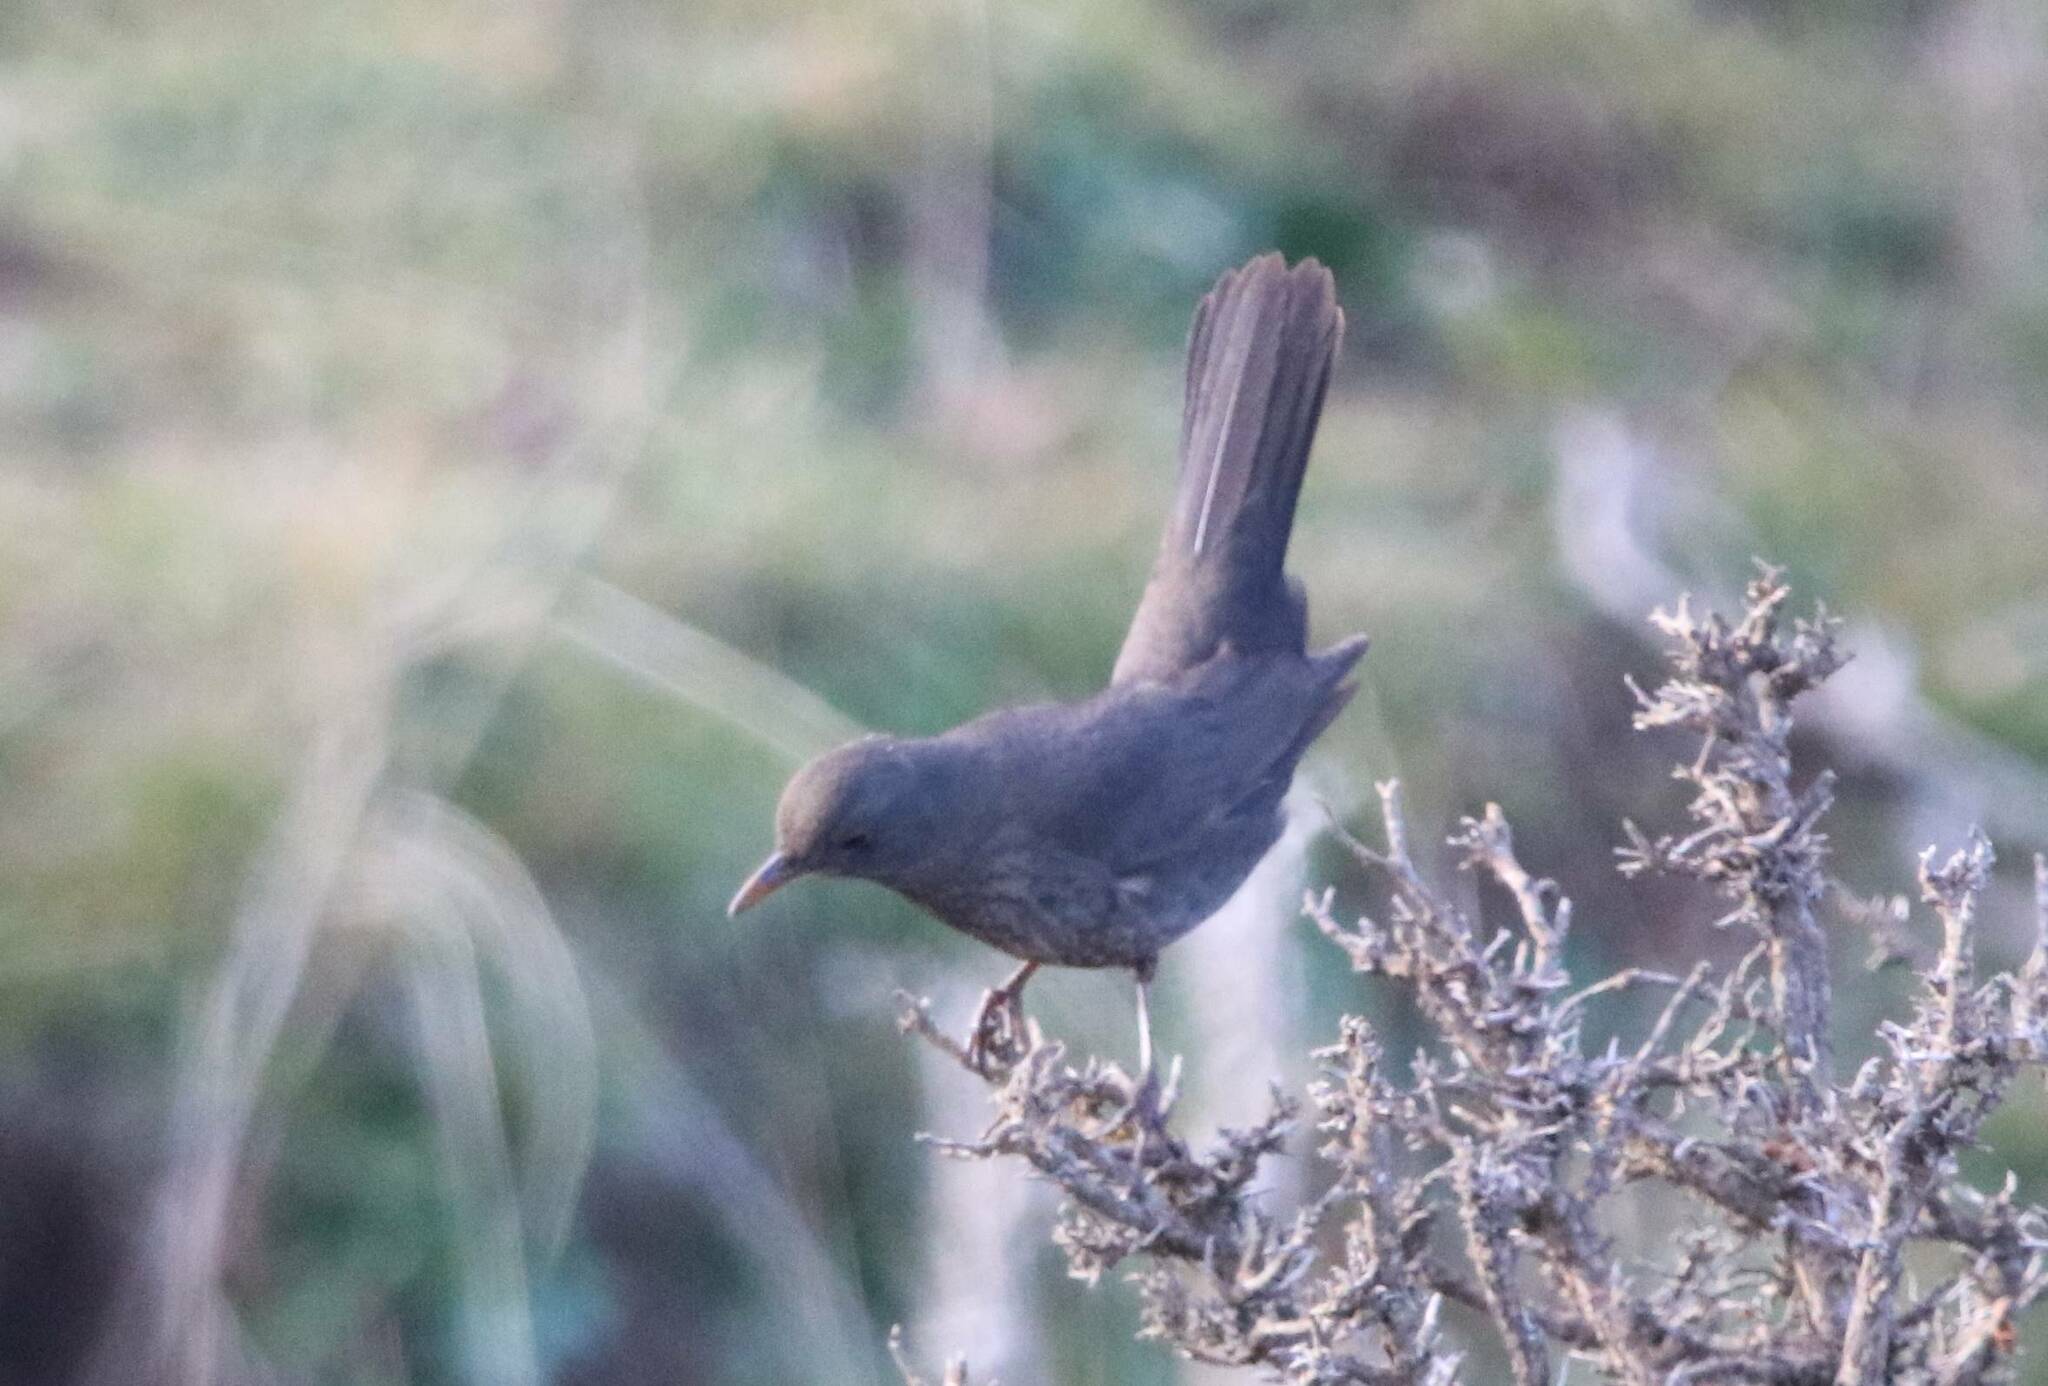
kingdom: Animalia
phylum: Chordata
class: Aves
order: Passeriformes
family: Turdidae
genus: Turdus
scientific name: Turdus merula
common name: Common blackbird
